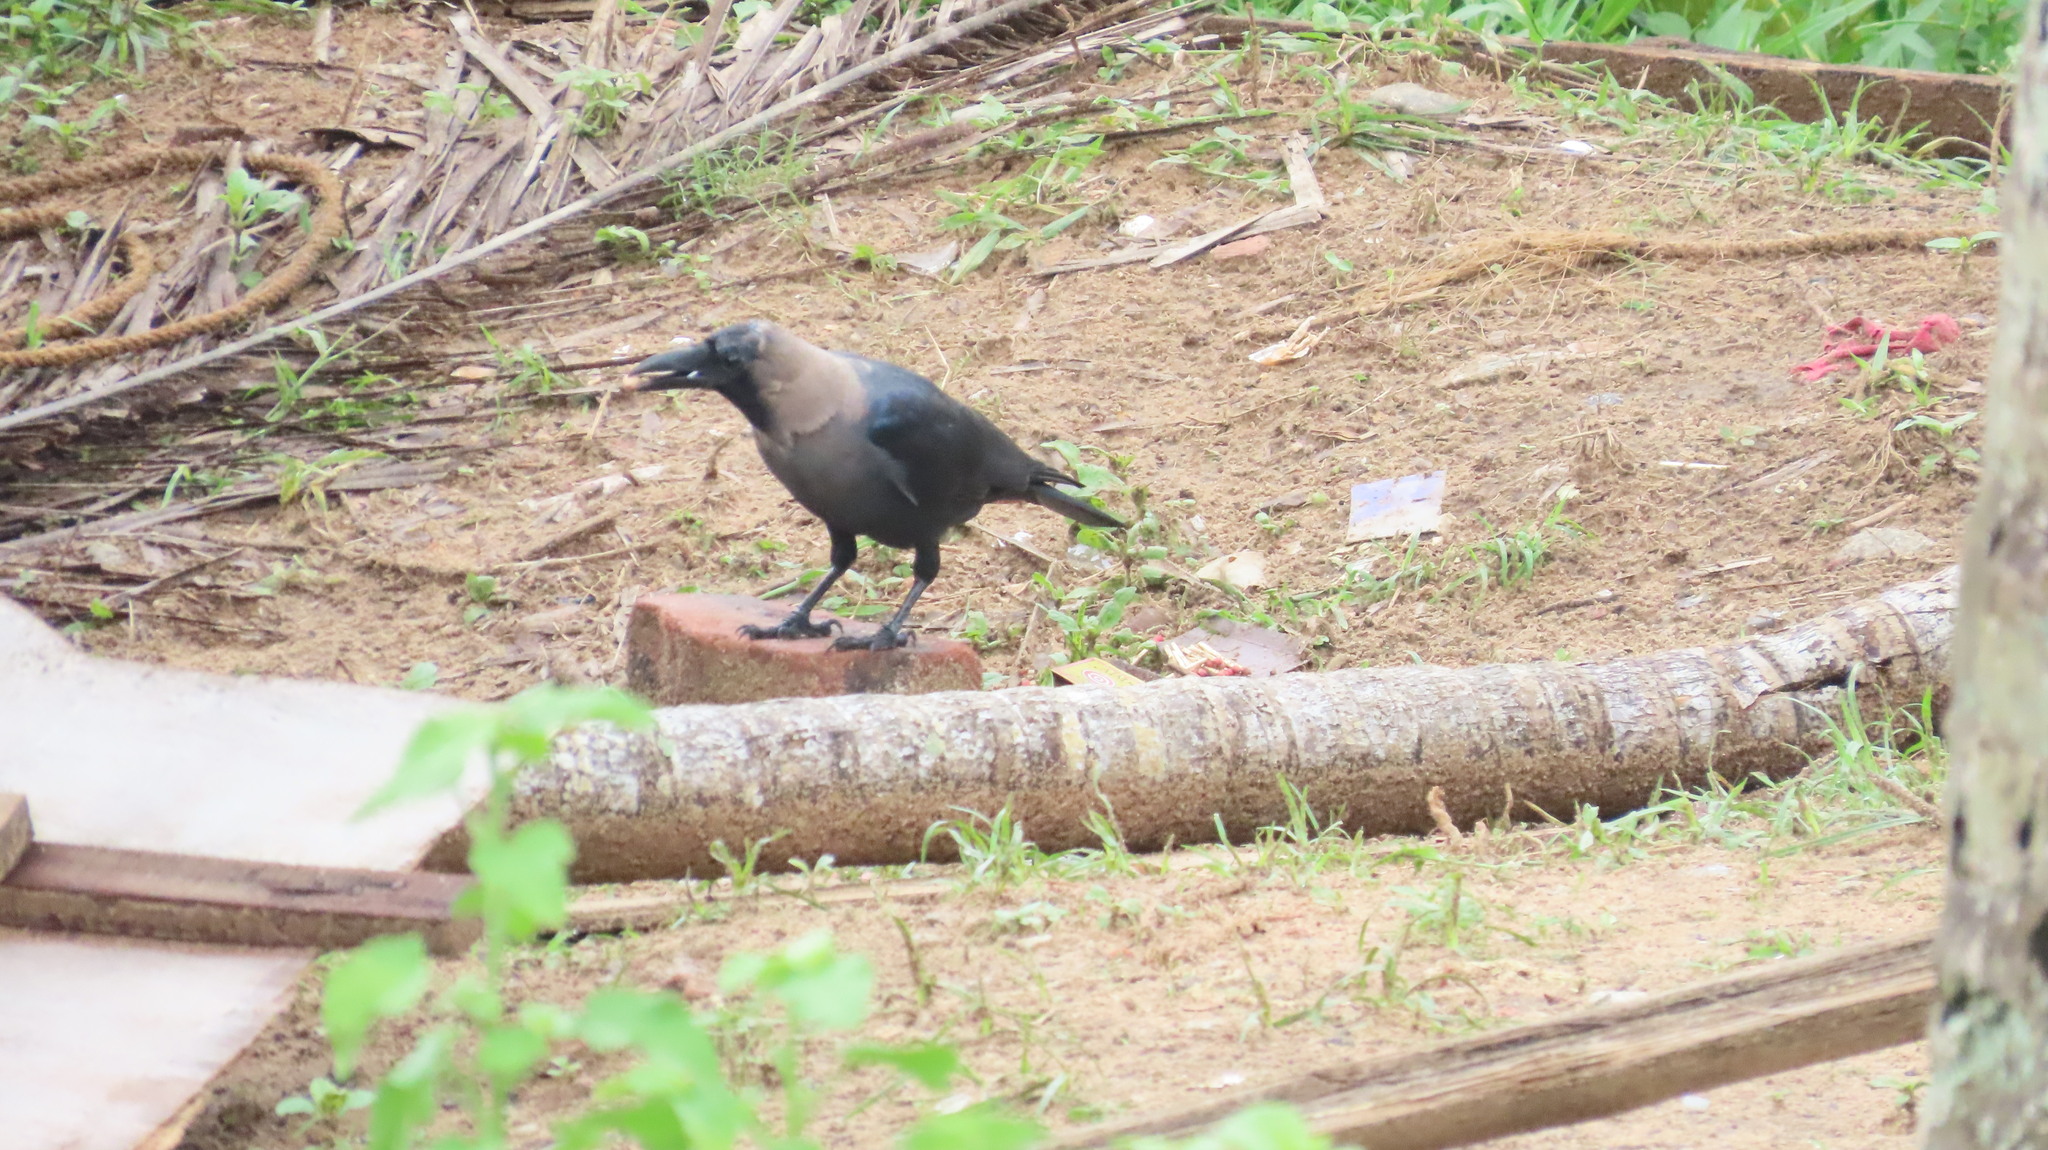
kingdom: Animalia
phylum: Chordata
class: Aves
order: Passeriformes
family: Corvidae
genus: Corvus
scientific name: Corvus splendens
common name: House crow
